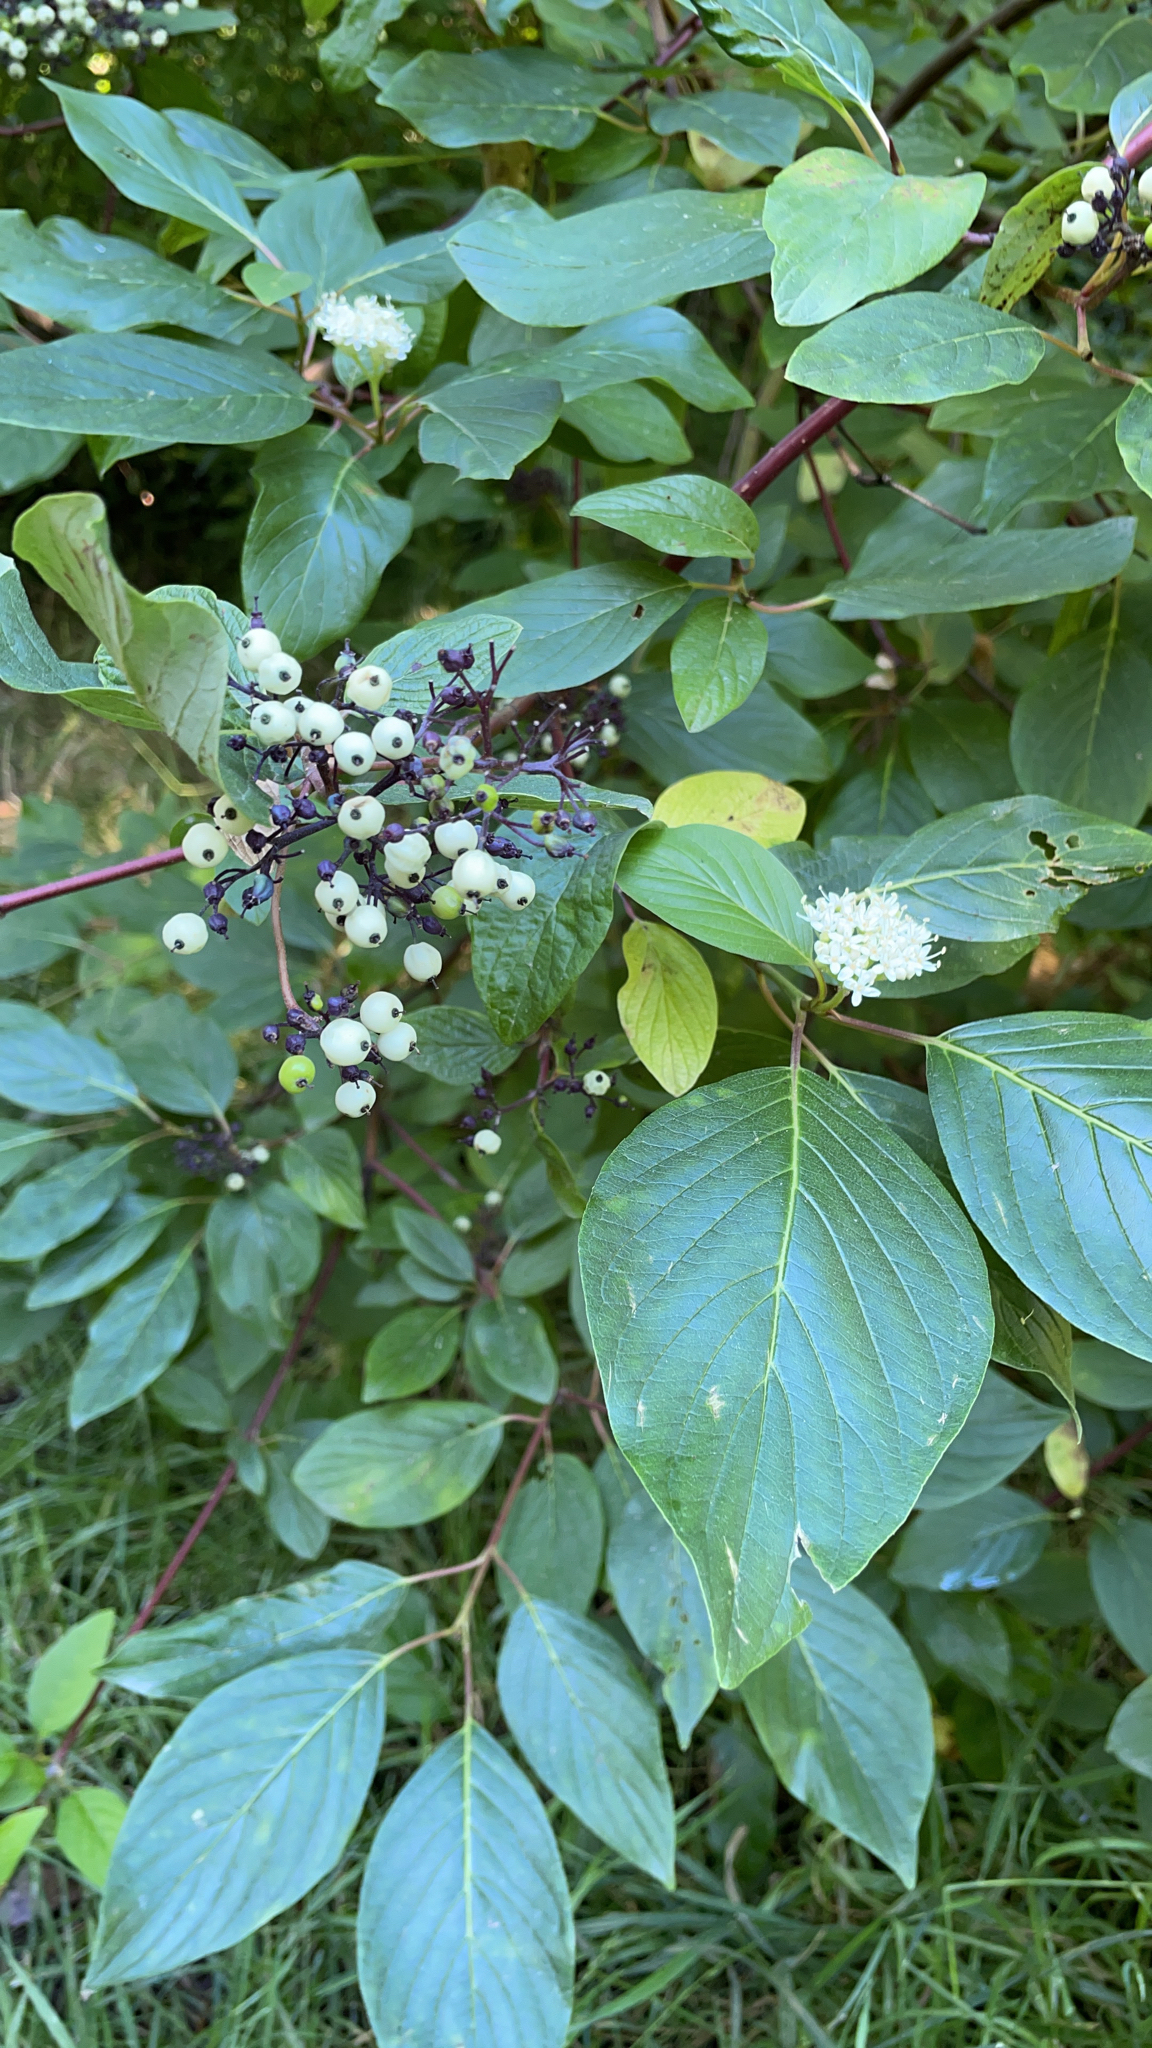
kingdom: Plantae
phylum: Tracheophyta
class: Magnoliopsida
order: Cornales
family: Cornaceae
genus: Cornus
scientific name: Cornus sericea
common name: Red-osier dogwood
